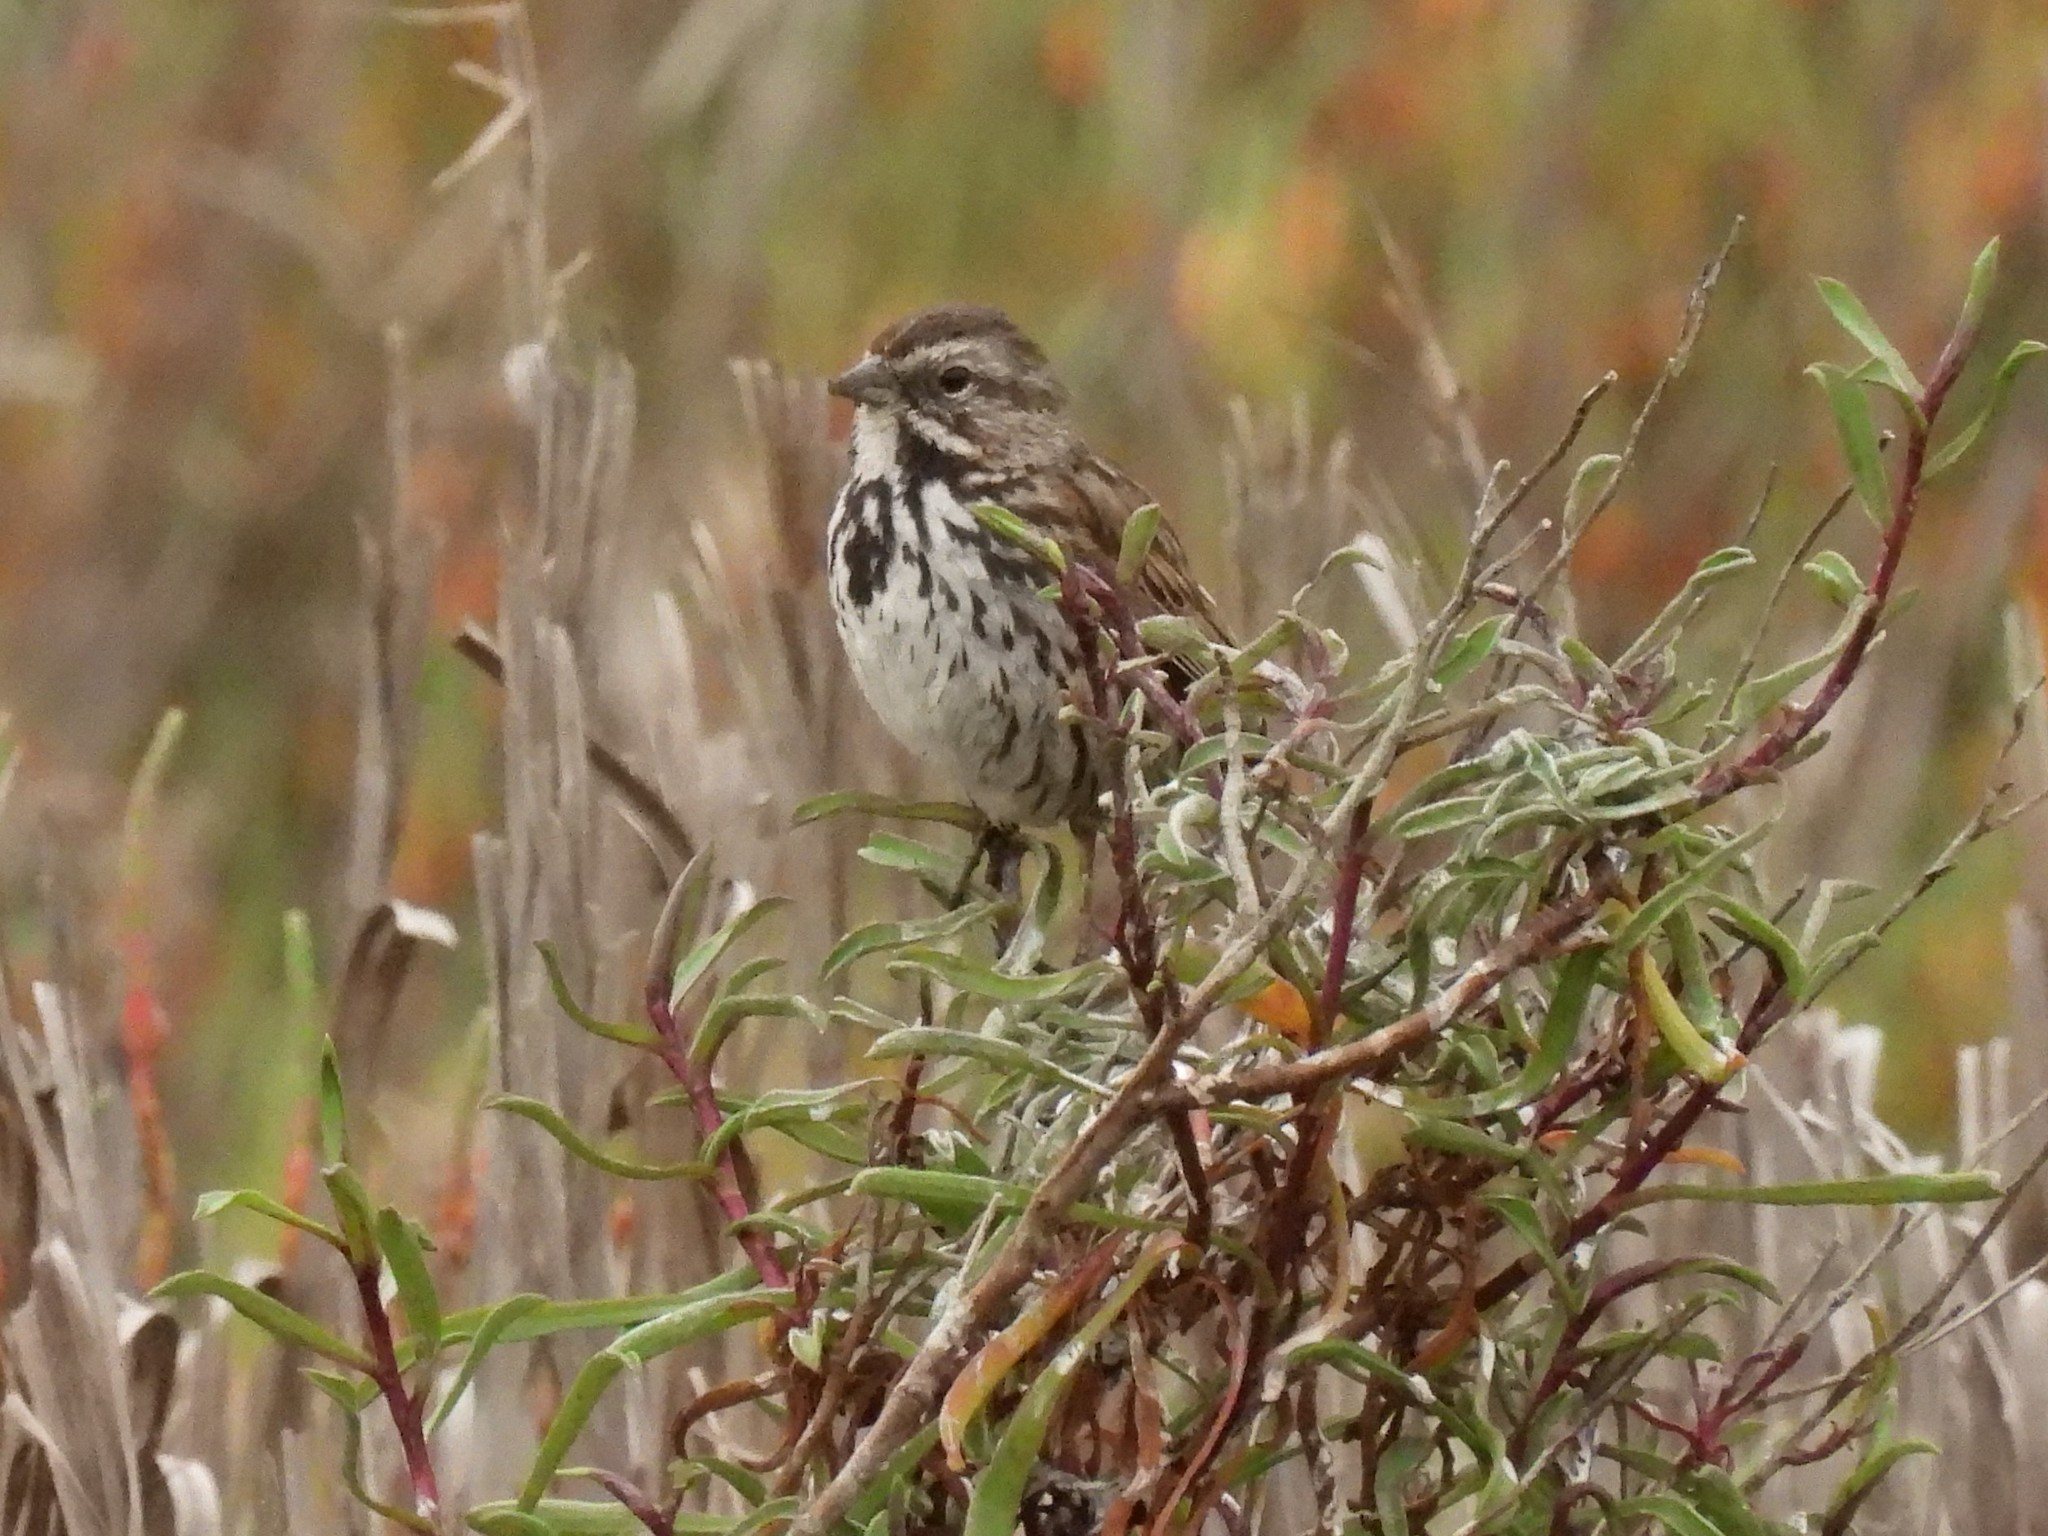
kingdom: Animalia
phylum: Chordata
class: Aves
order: Passeriformes
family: Passerellidae
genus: Melospiza
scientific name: Melospiza melodia
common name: Song sparrow
